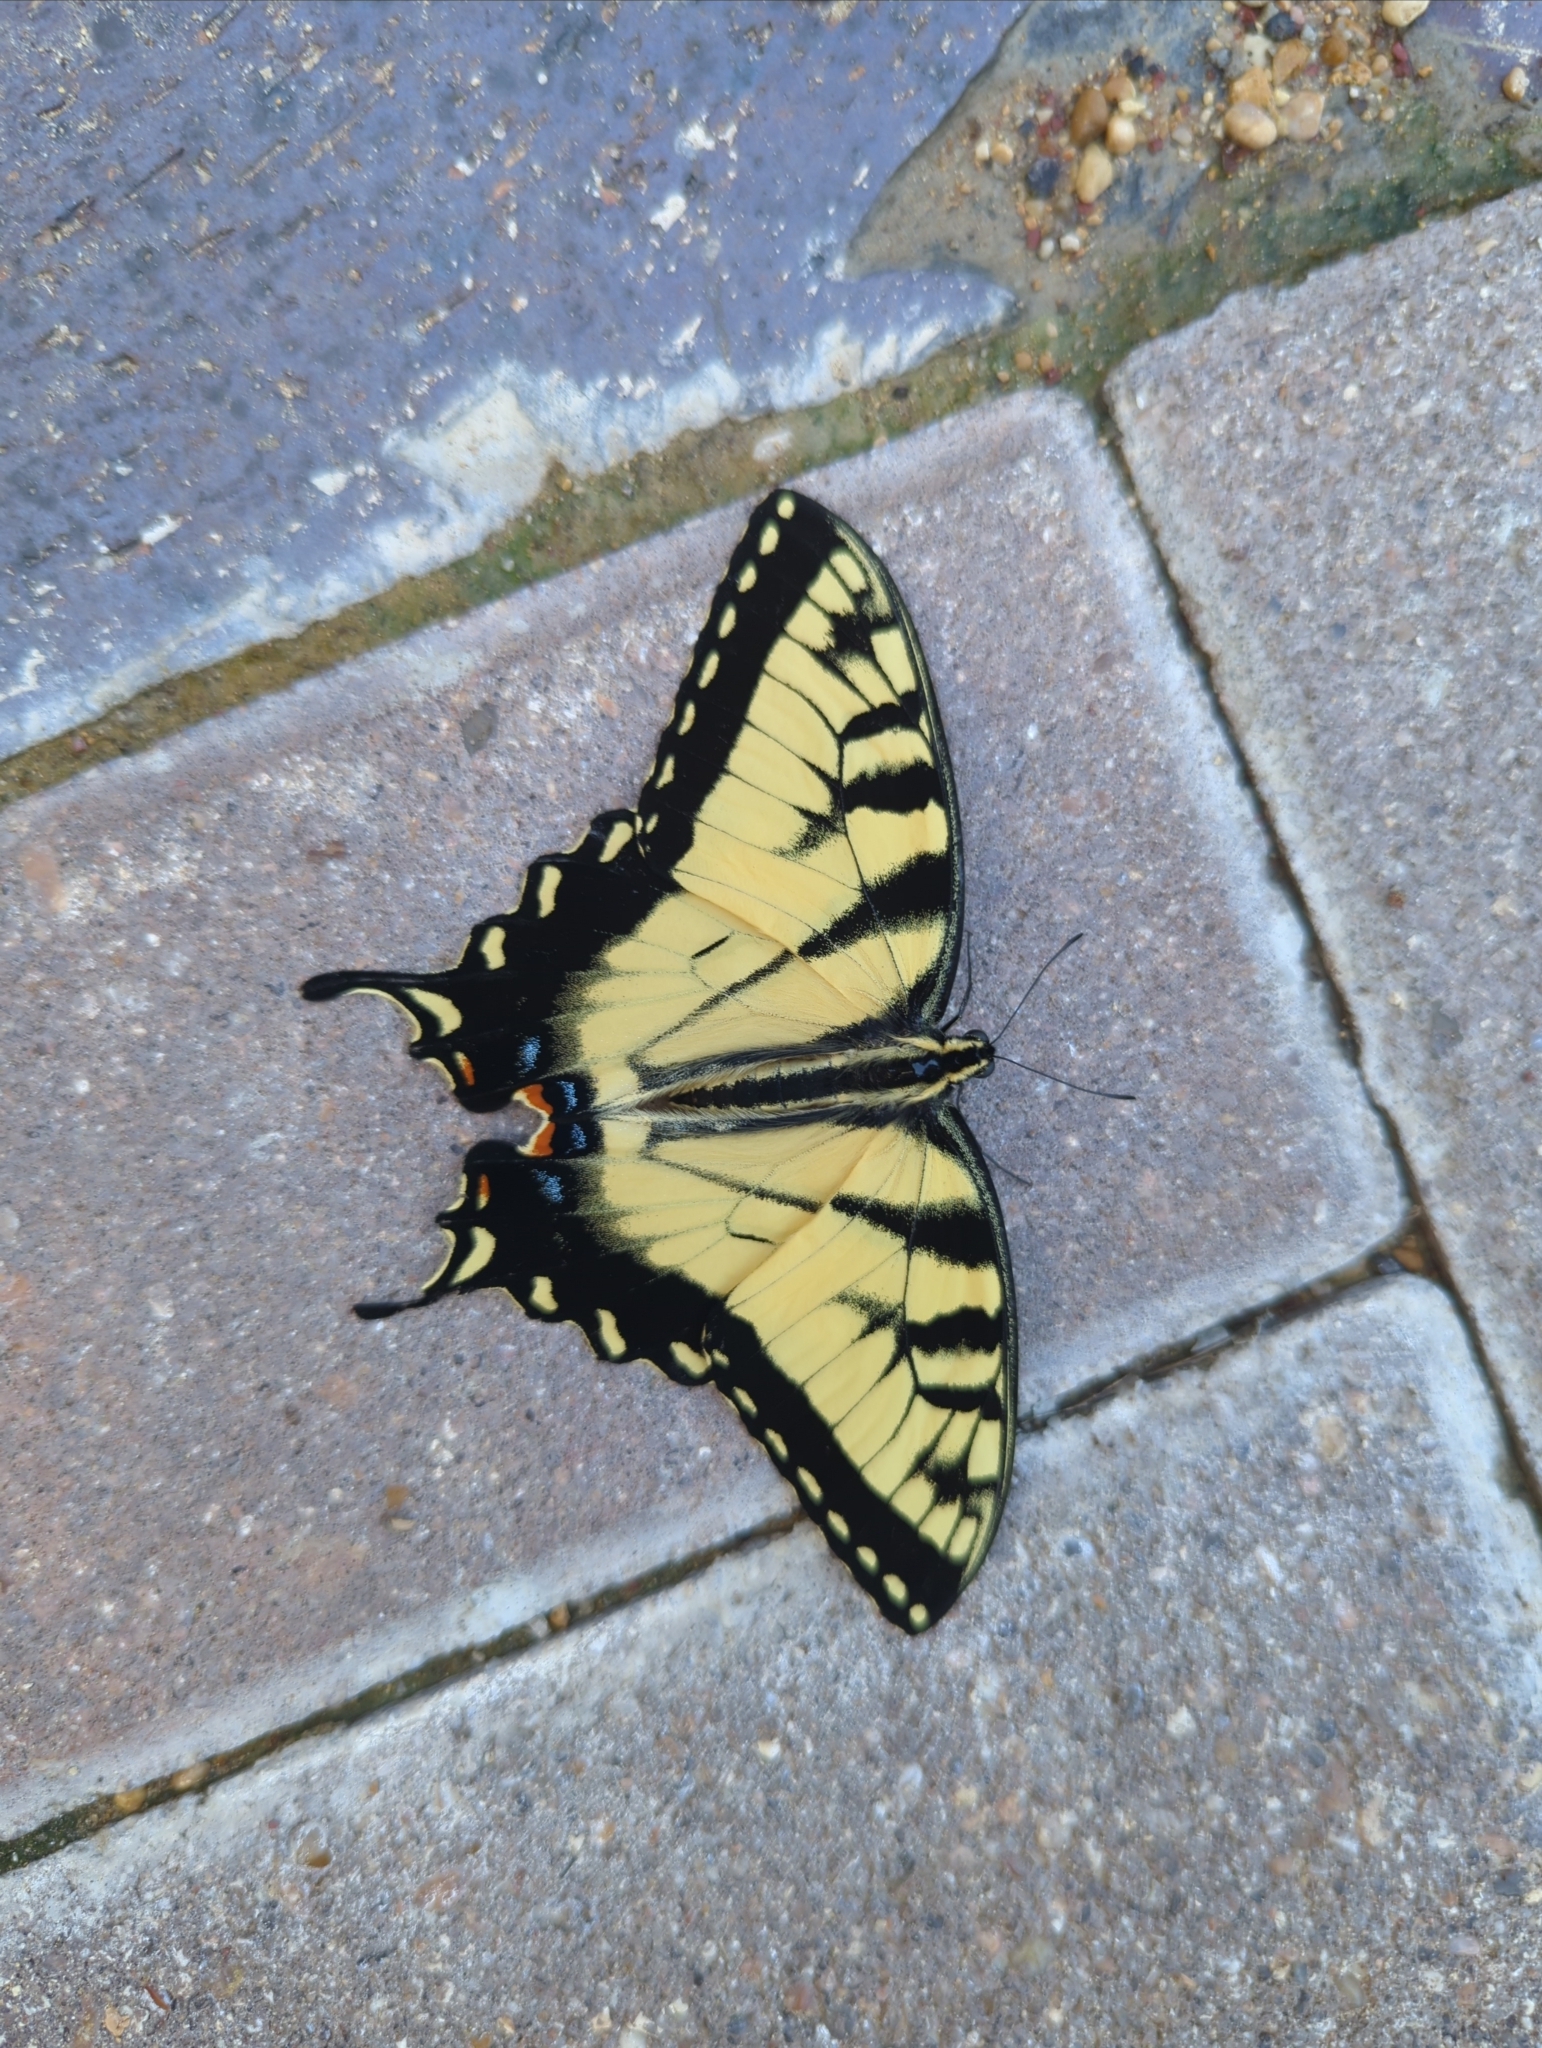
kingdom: Animalia
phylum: Arthropoda
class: Insecta
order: Lepidoptera
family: Papilionidae
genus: Papilio
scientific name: Papilio glaucus
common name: Tiger swallowtail
